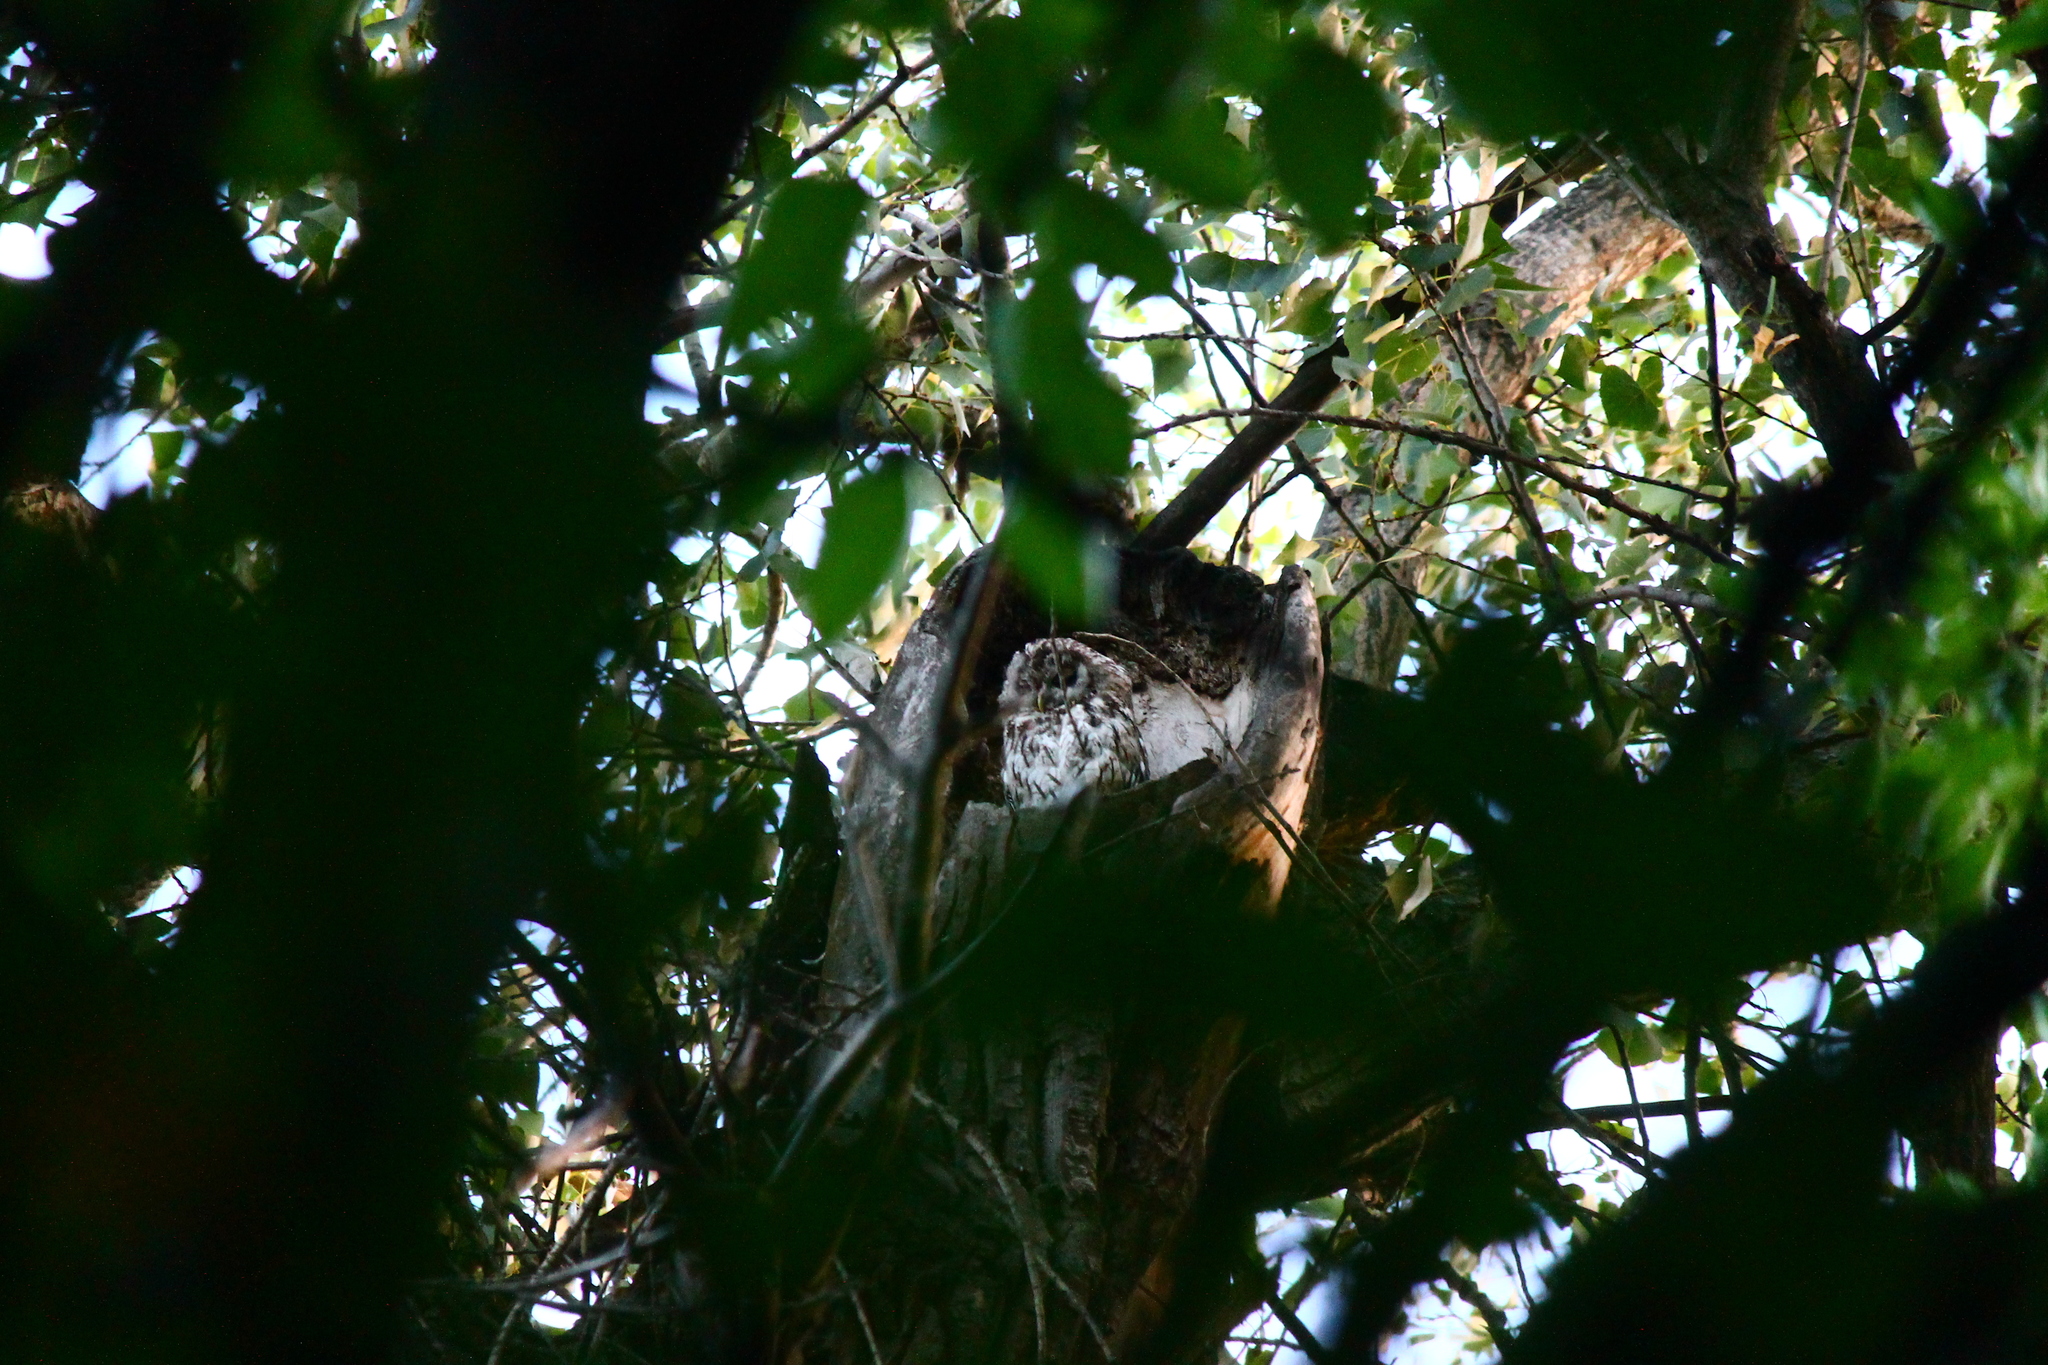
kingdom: Animalia
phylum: Chordata
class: Aves
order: Strigiformes
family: Strigidae
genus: Strix
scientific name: Strix aluco
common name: Tawny owl
